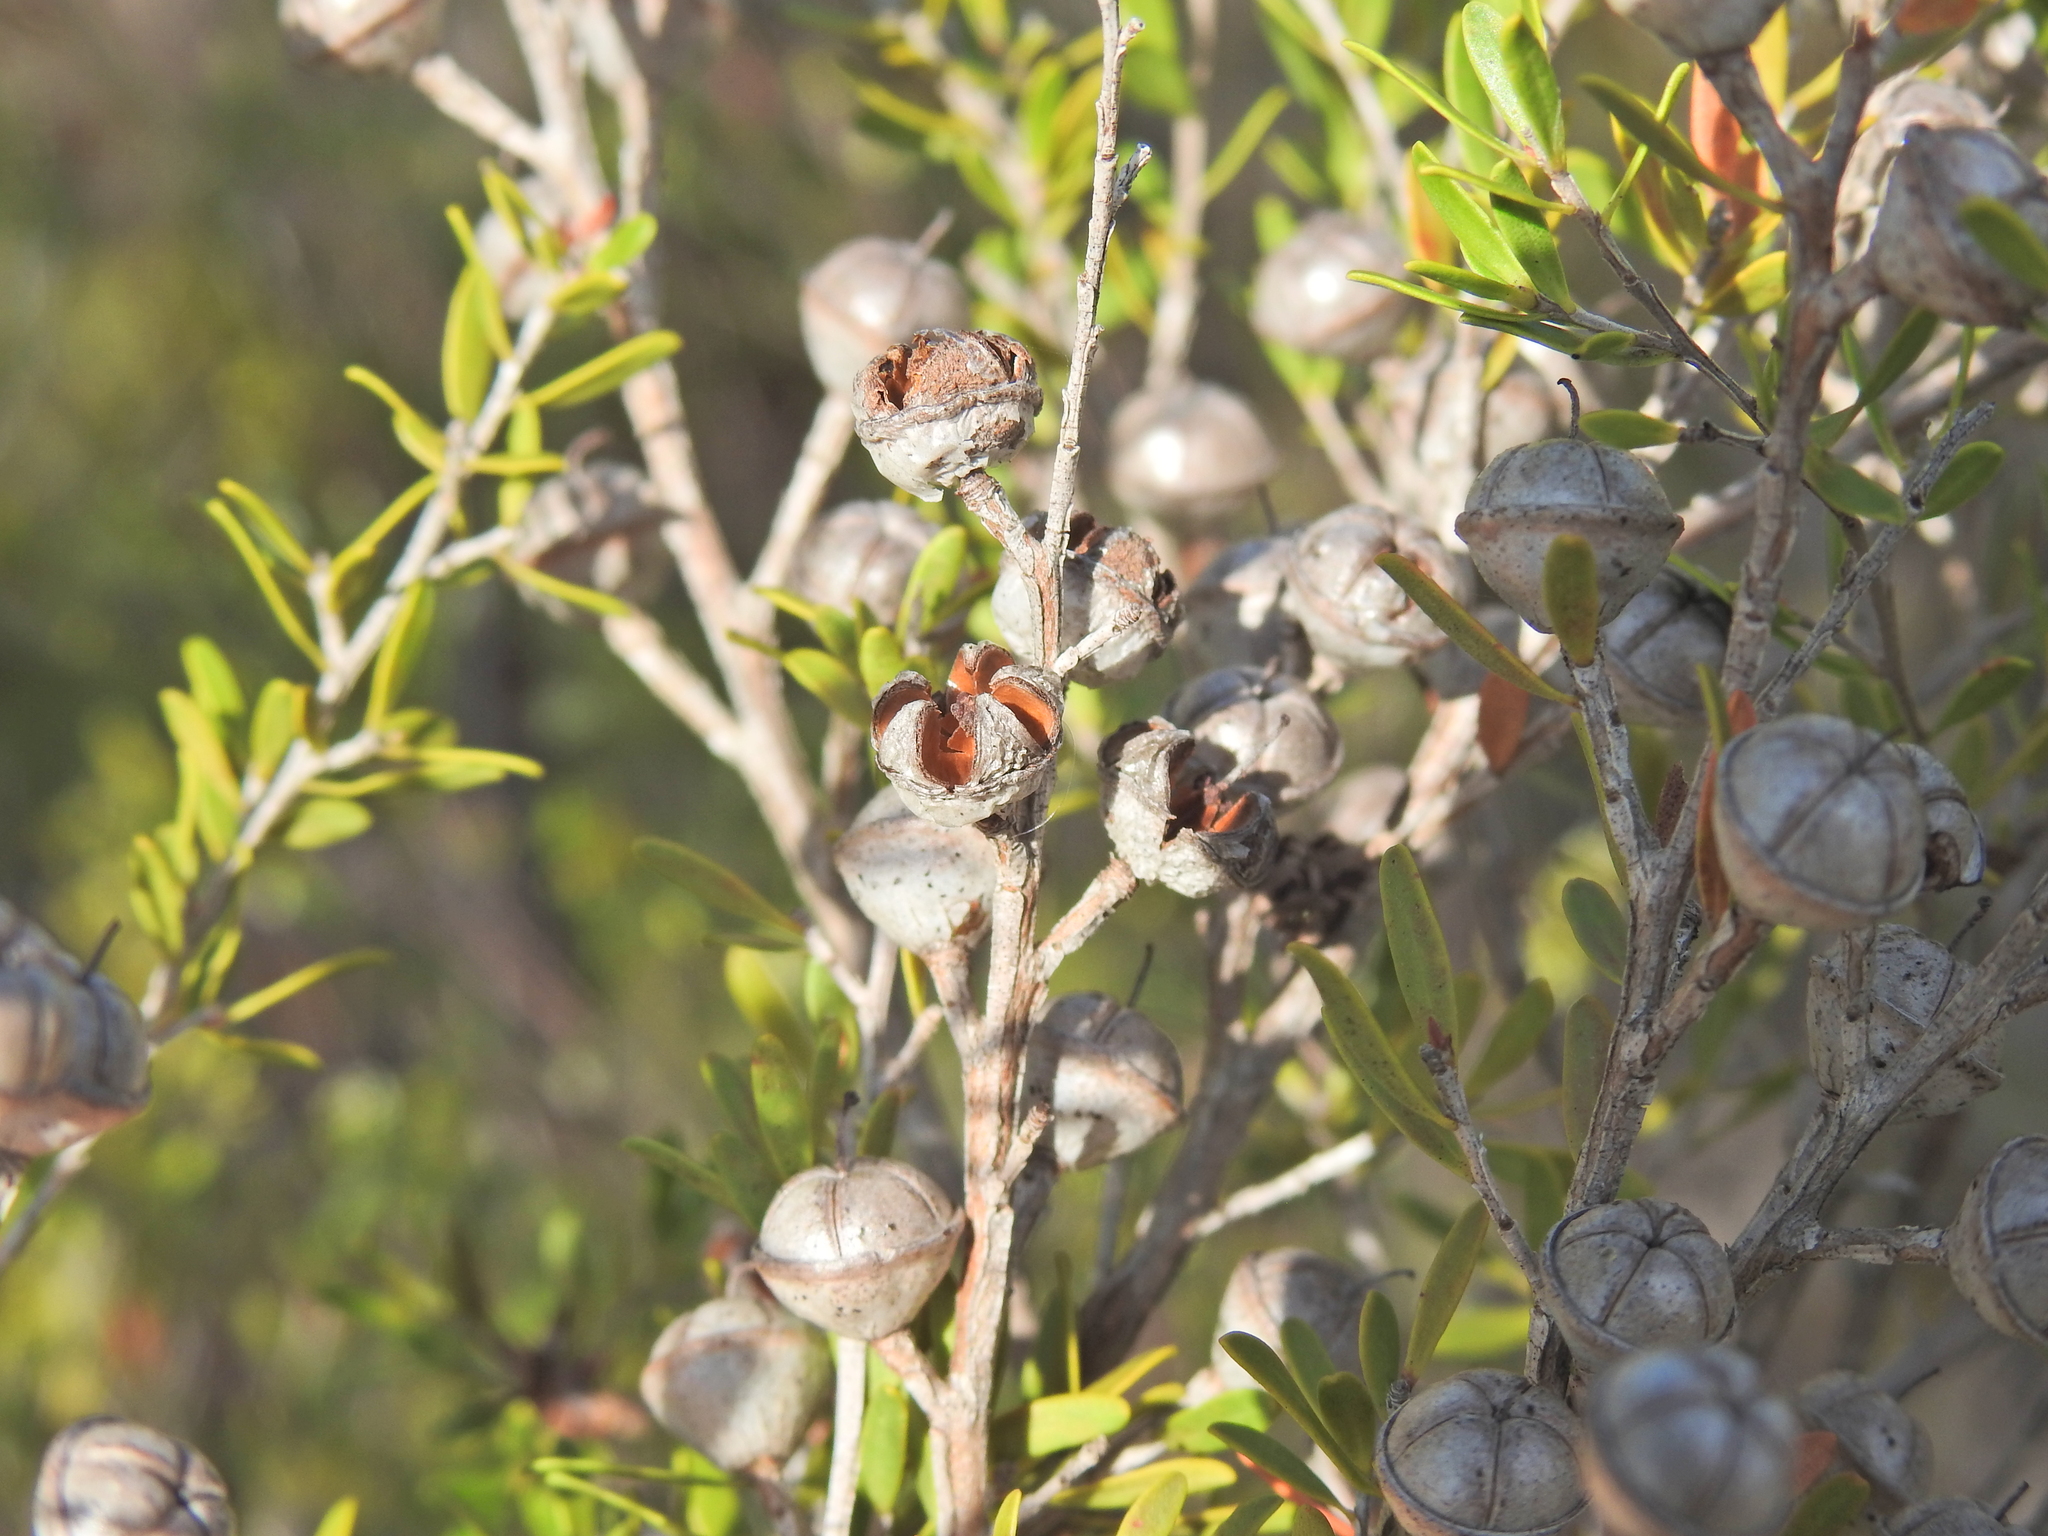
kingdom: Plantae
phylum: Tracheophyta
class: Magnoliopsida
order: Myrtales
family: Myrtaceae
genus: Leptospermum
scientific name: Leptospermum polygalifolium
